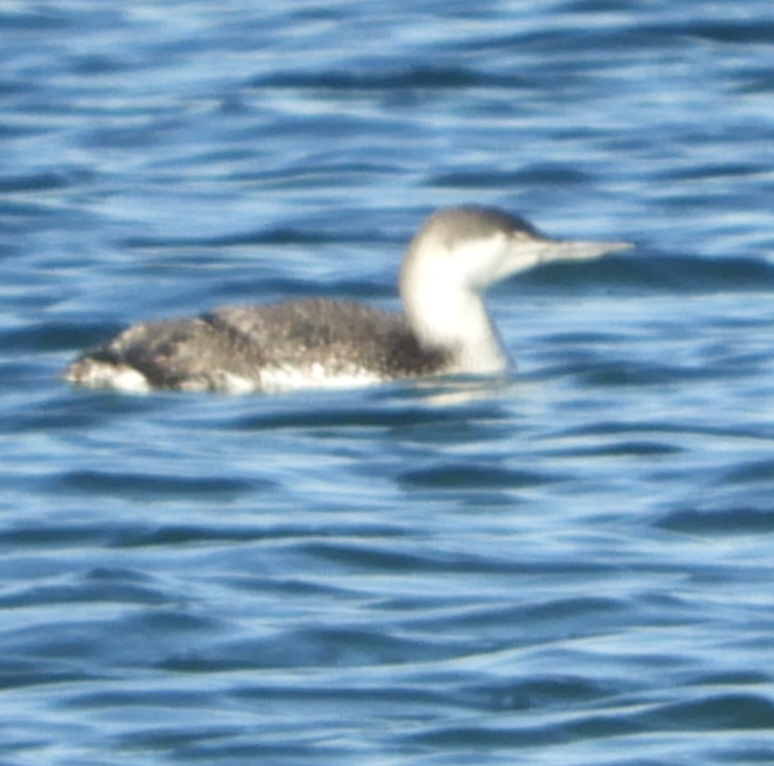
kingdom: Animalia
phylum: Chordata
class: Aves
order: Gaviiformes
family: Gaviidae
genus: Gavia
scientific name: Gavia stellata
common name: Red-throated loon
